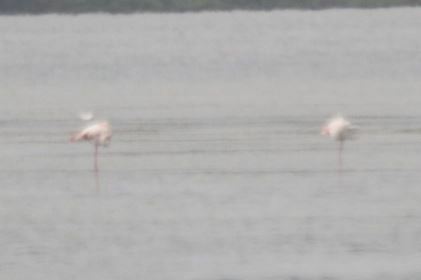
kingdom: Animalia
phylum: Chordata
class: Aves
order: Phoenicopteriformes
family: Phoenicopteridae
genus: Phoenicopterus
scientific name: Phoenicopterus roseus
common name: Greater flamingo
